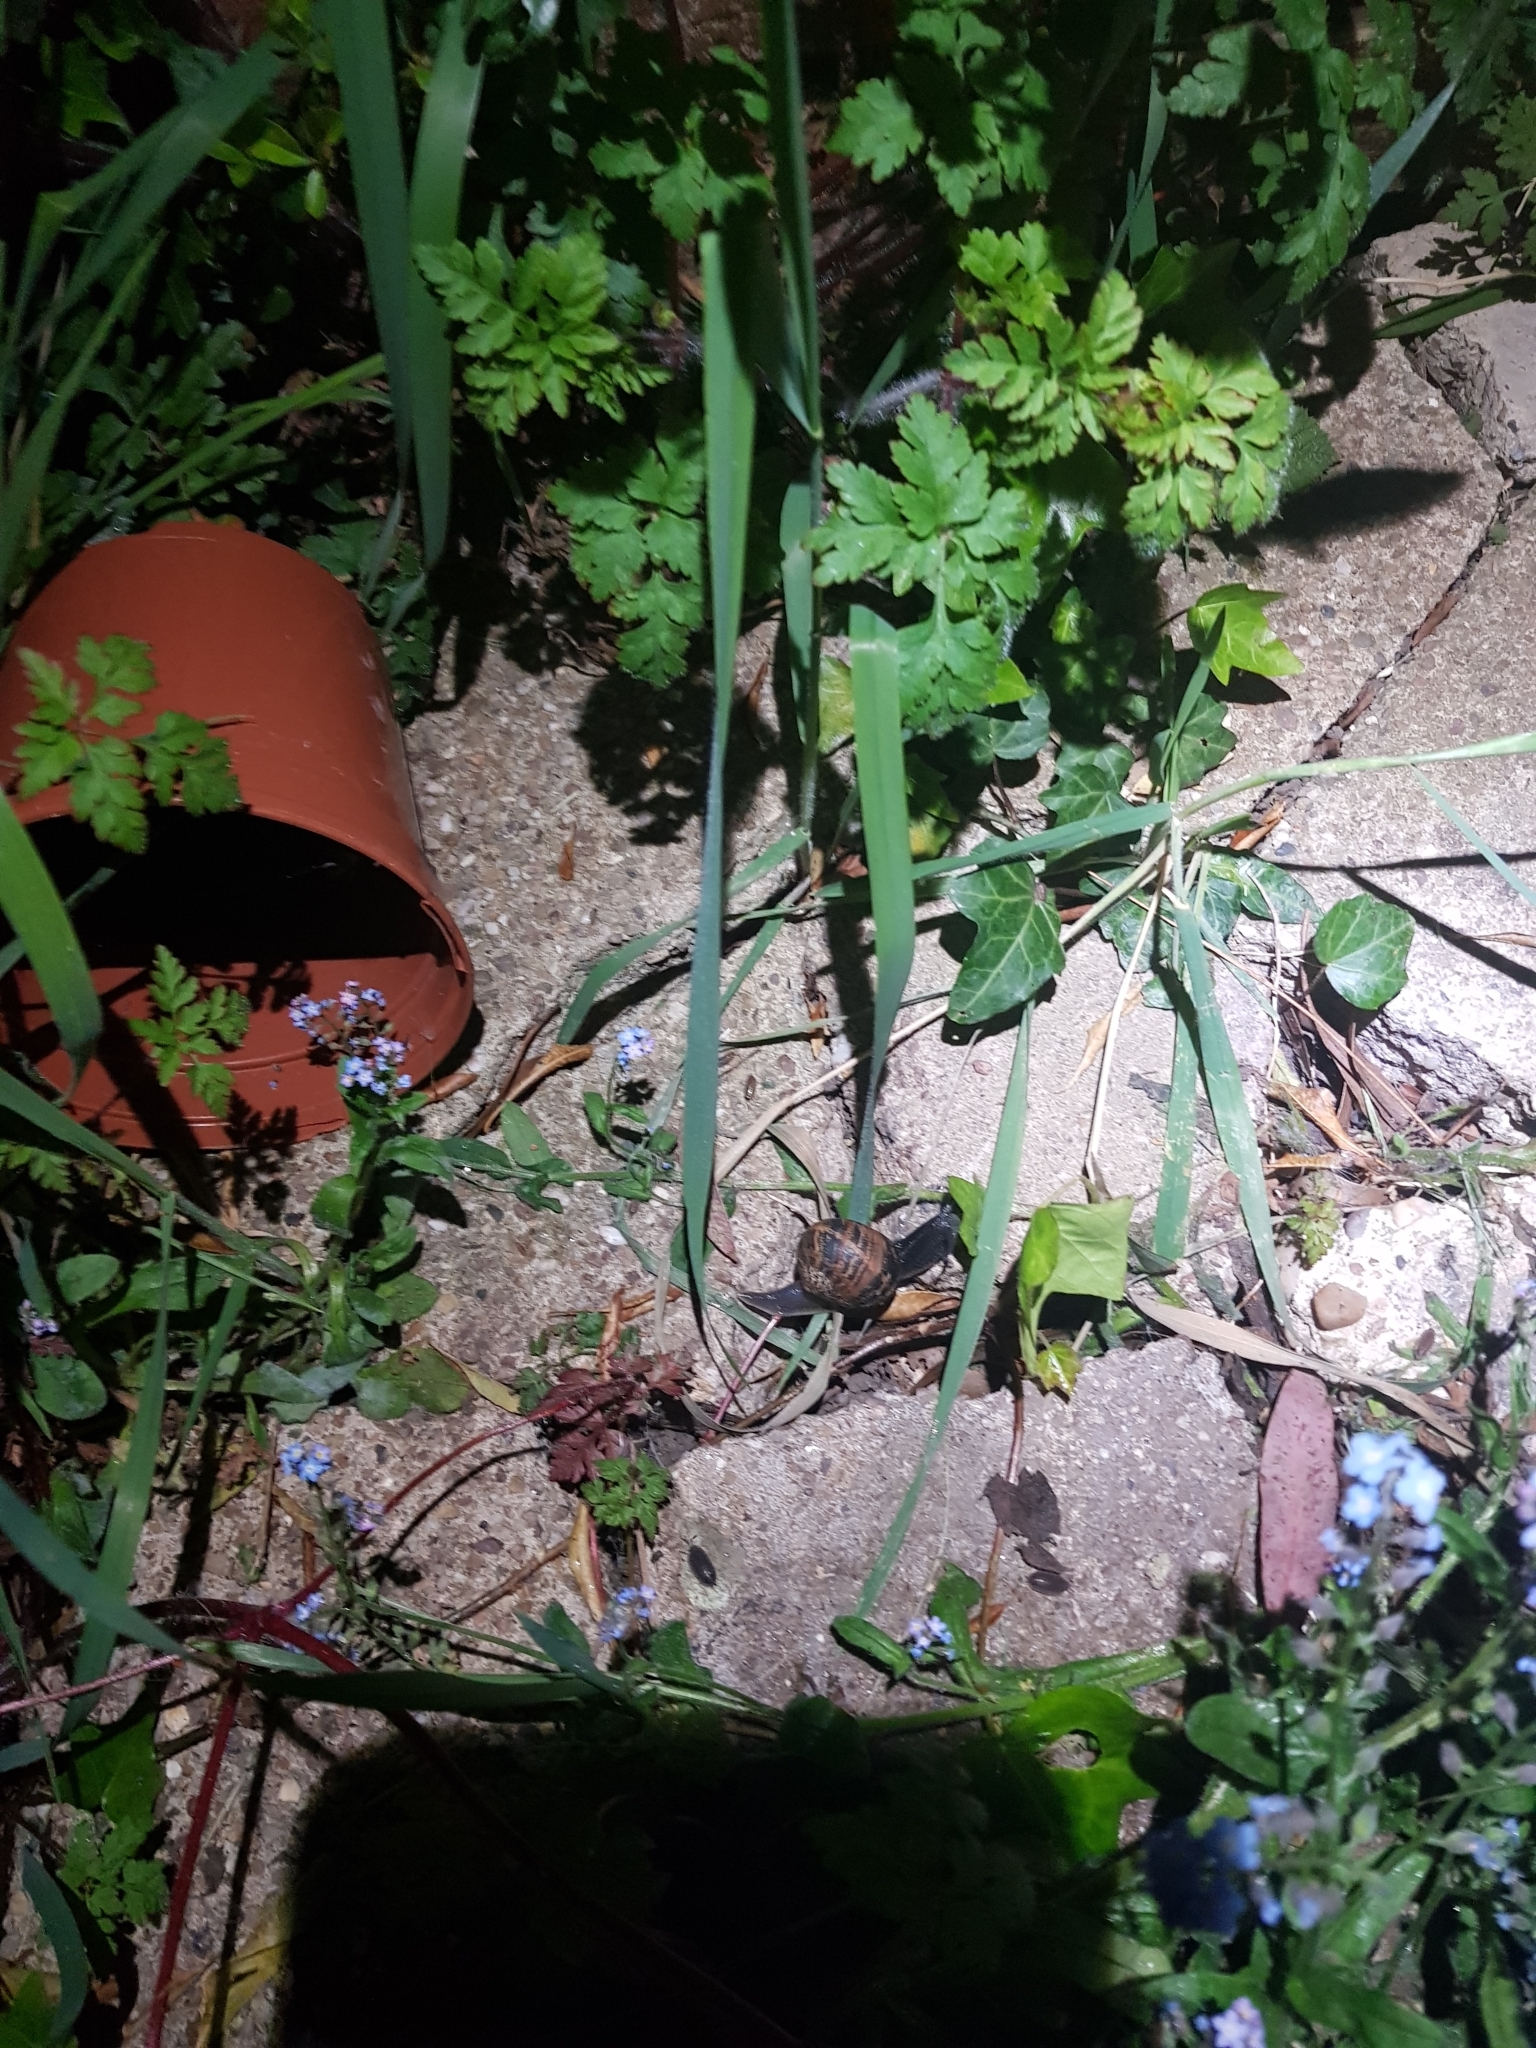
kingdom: Animalia
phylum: Mollusca
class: Gastropoda
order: Stylommatophora
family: Helicidae
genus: Cornu
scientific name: Cornu aspersum
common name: Brown garden snail
